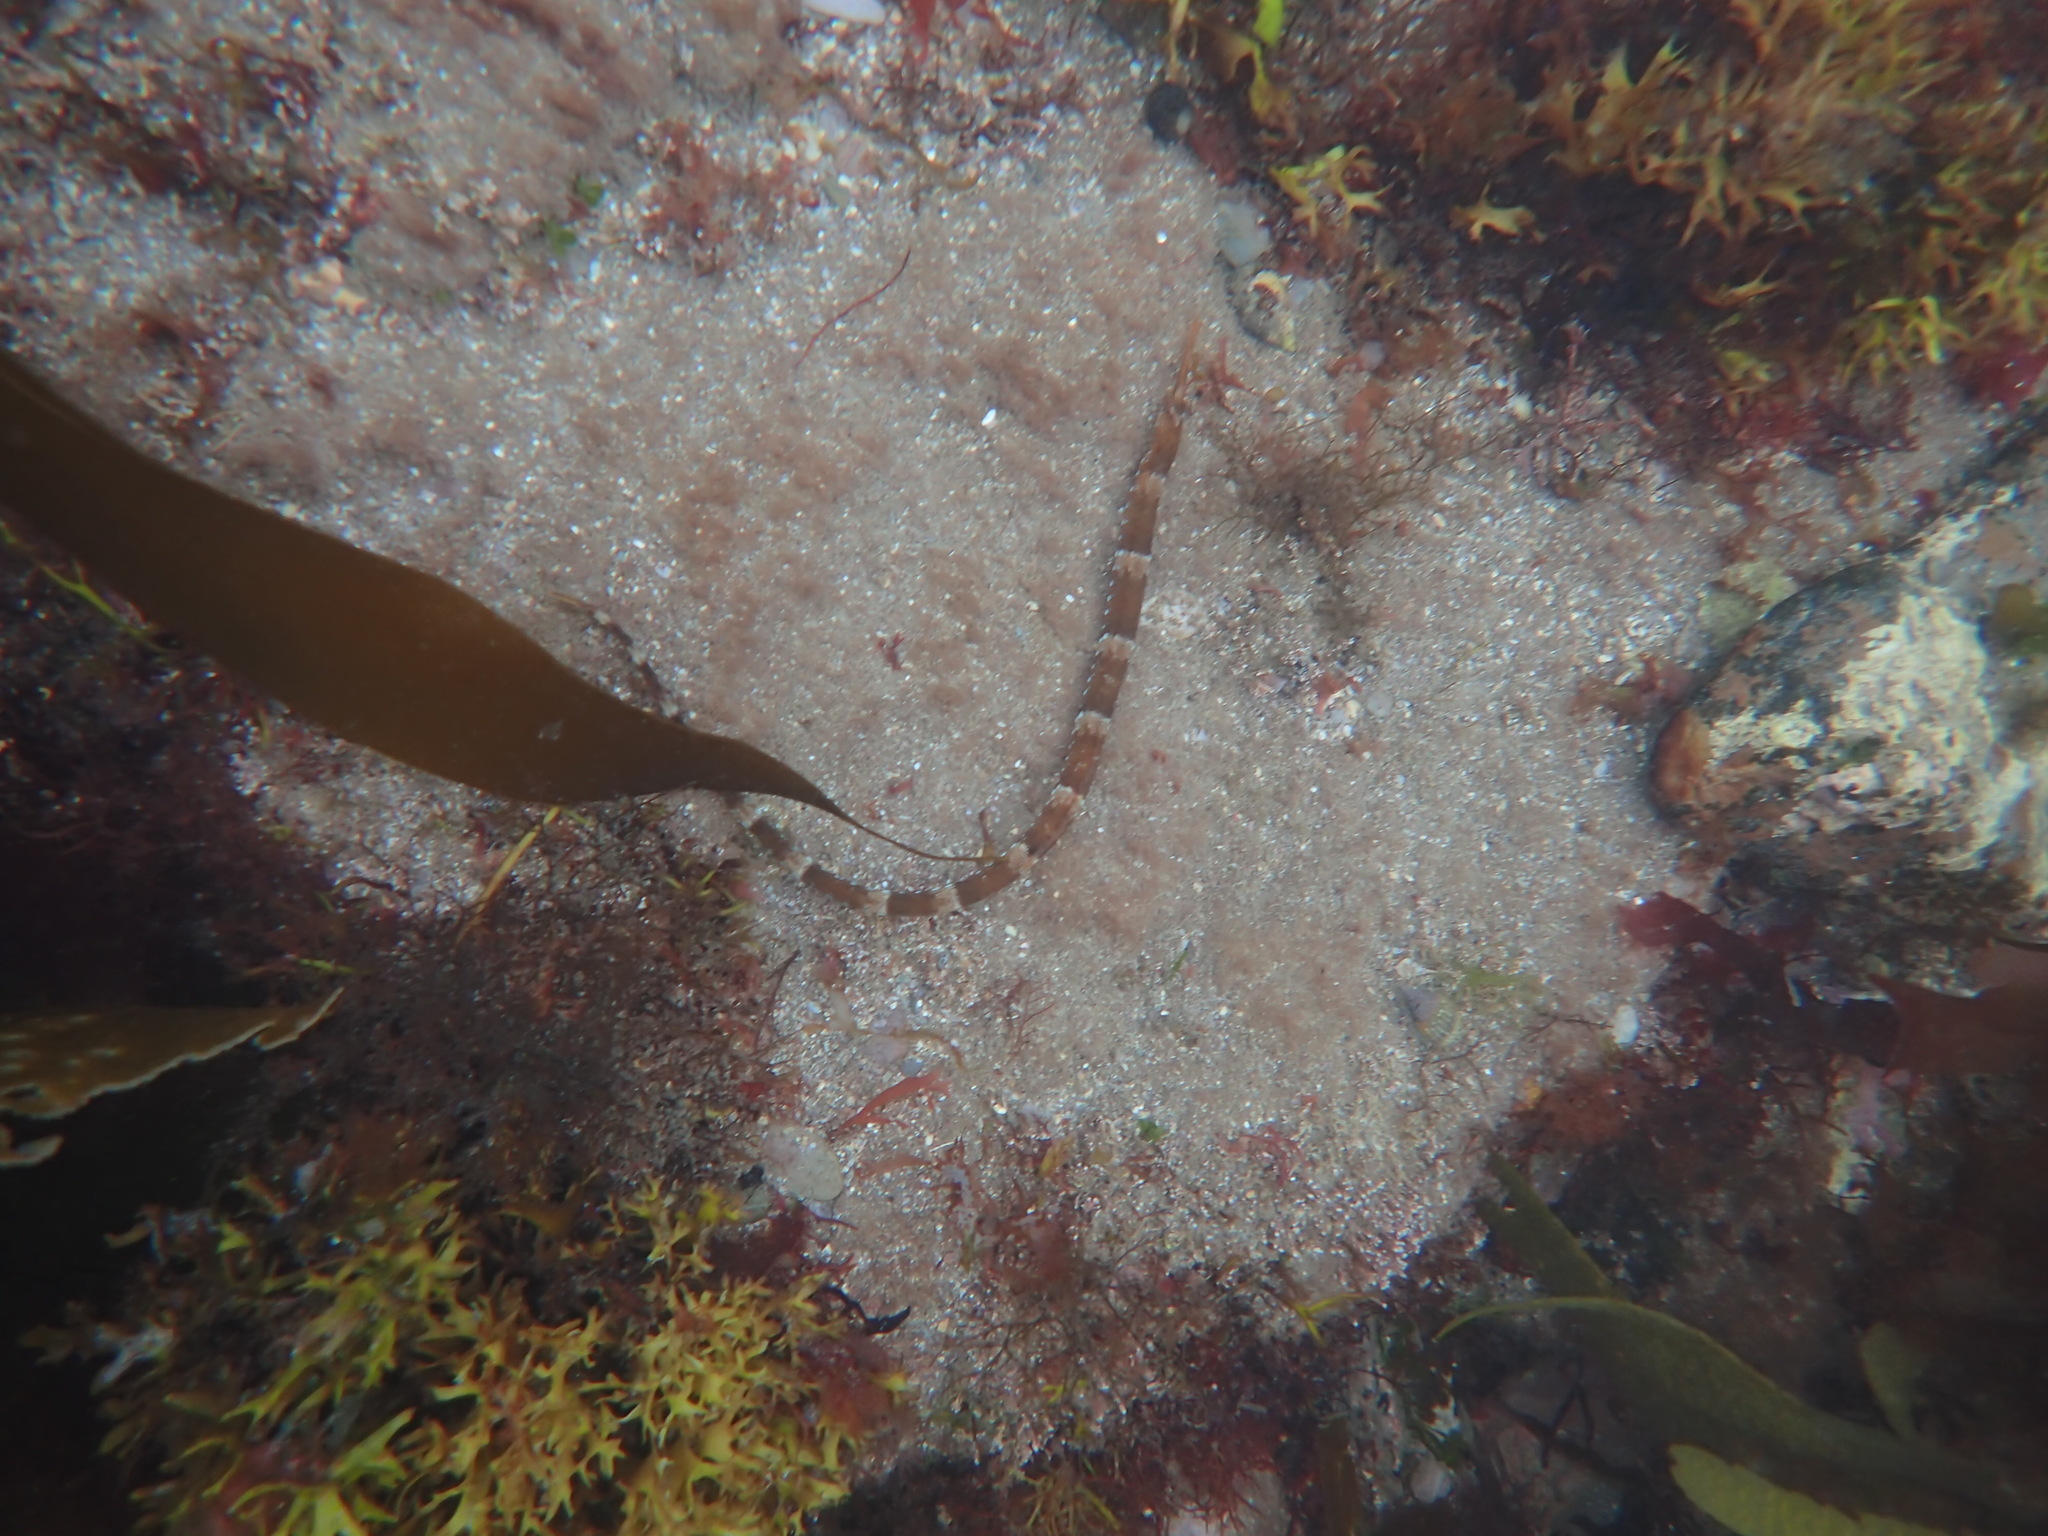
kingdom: Animalia
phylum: Chordata
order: Syngnathiformes
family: Syngnathidae
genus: Syngnathus
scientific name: Syngnathus acus
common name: Greater pipefish
